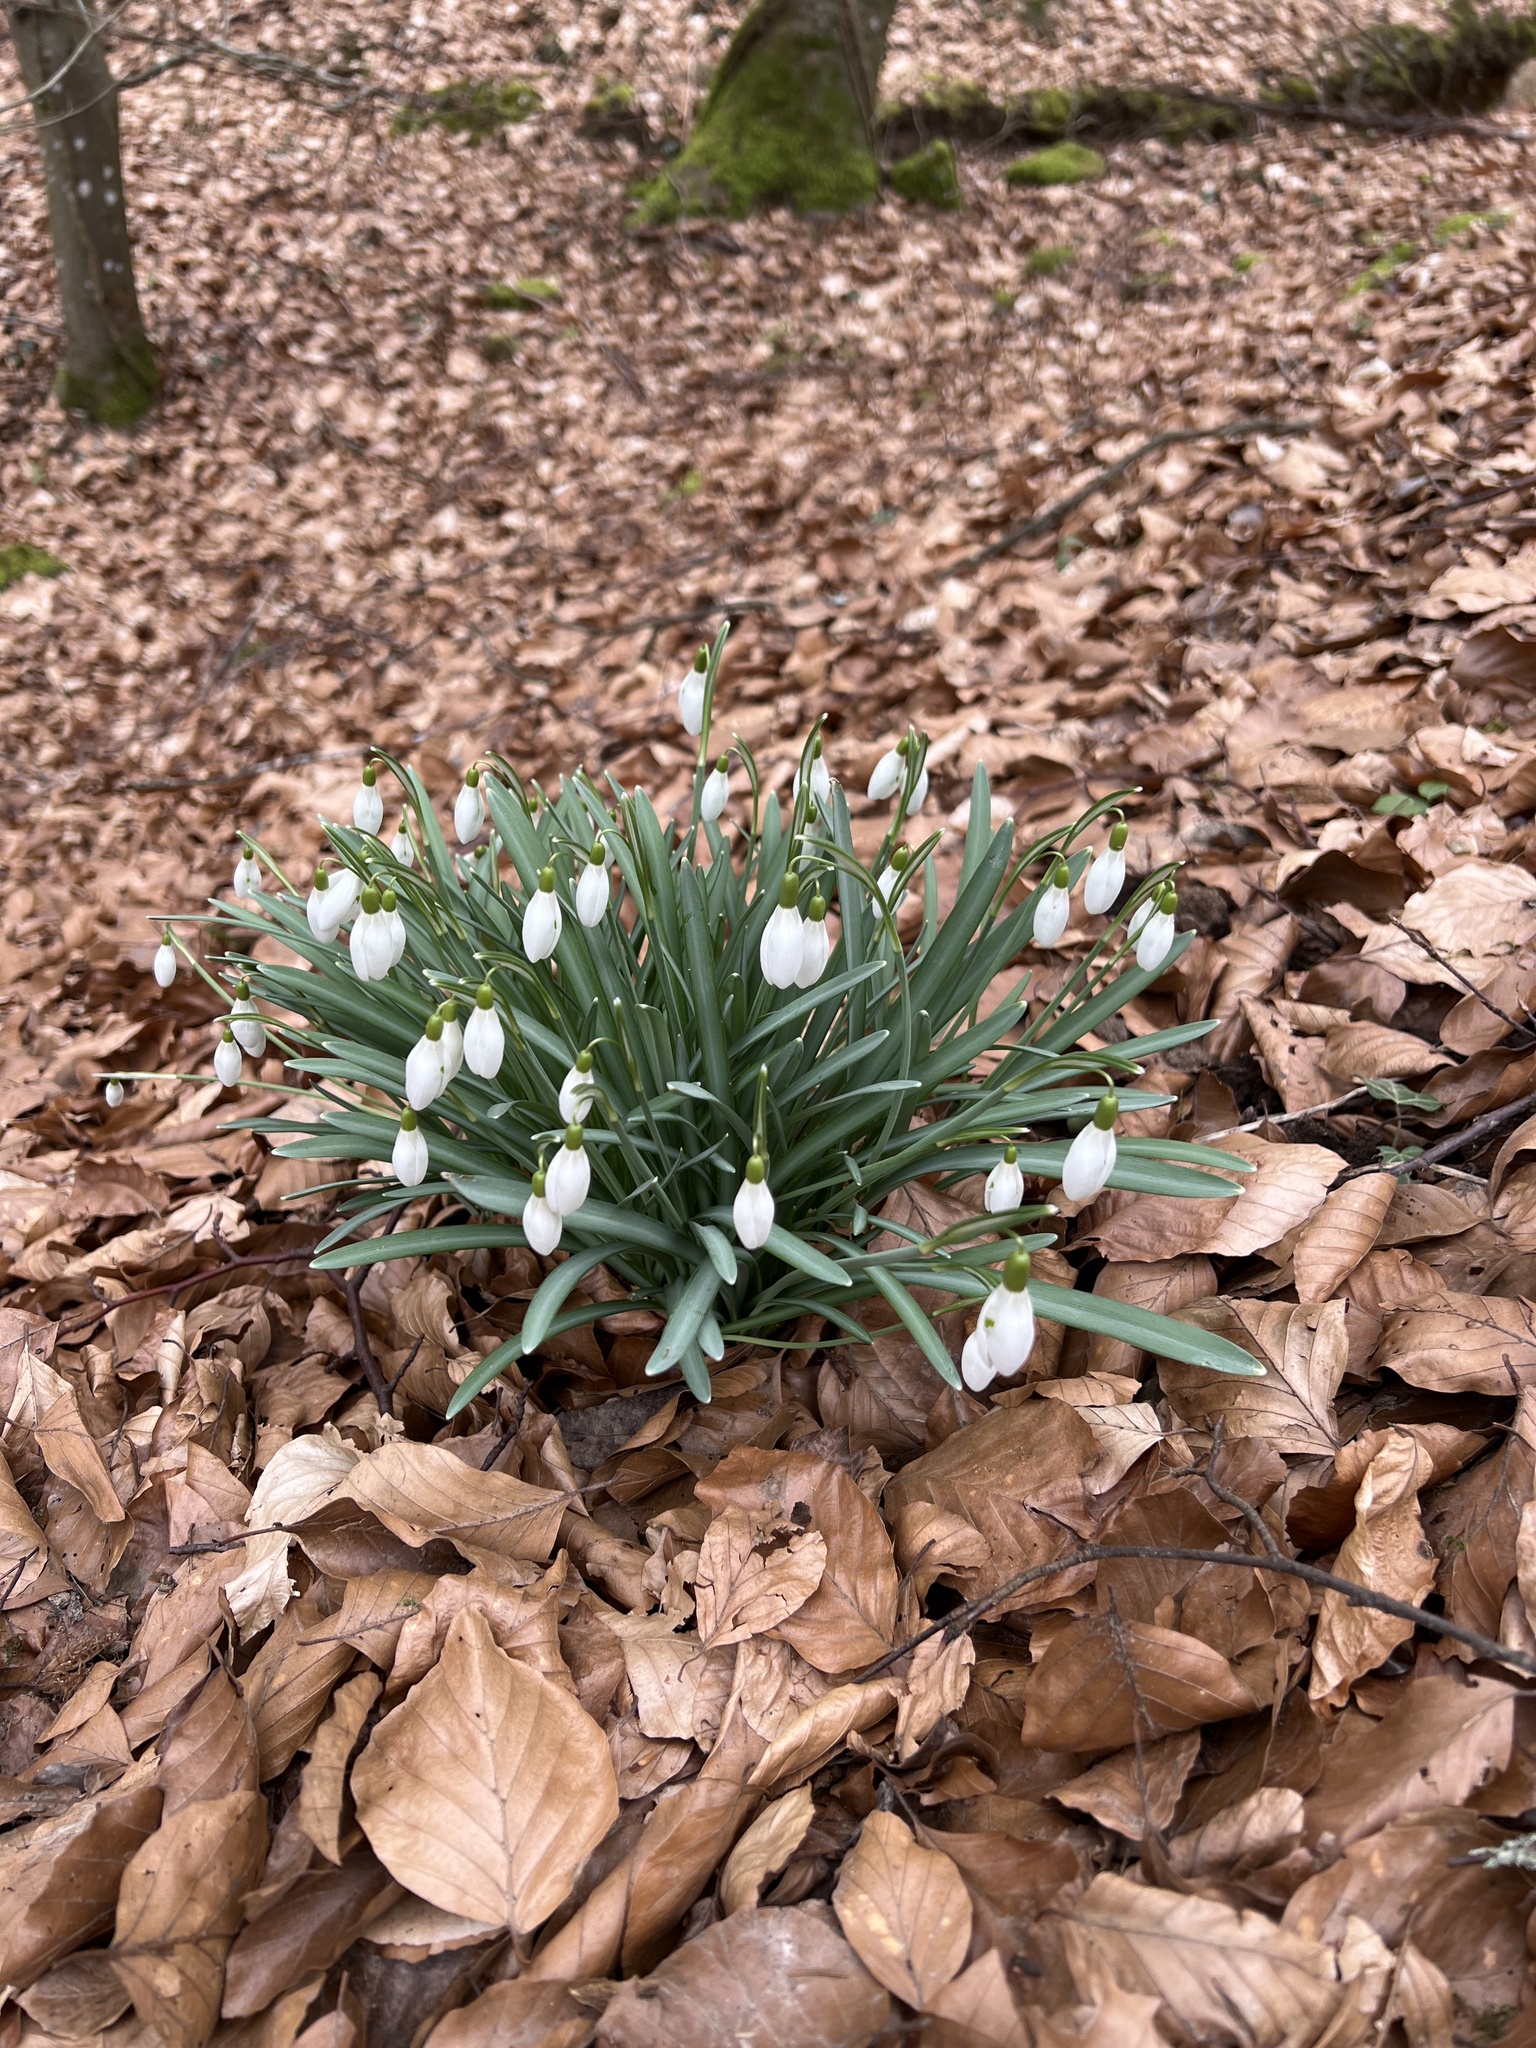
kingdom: Plantae
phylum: Tracheophyta
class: Liliopsida
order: Asparagales
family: Amaryllidaceae
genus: Galanthus
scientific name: Galanthus nivalis
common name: Snowdrop
